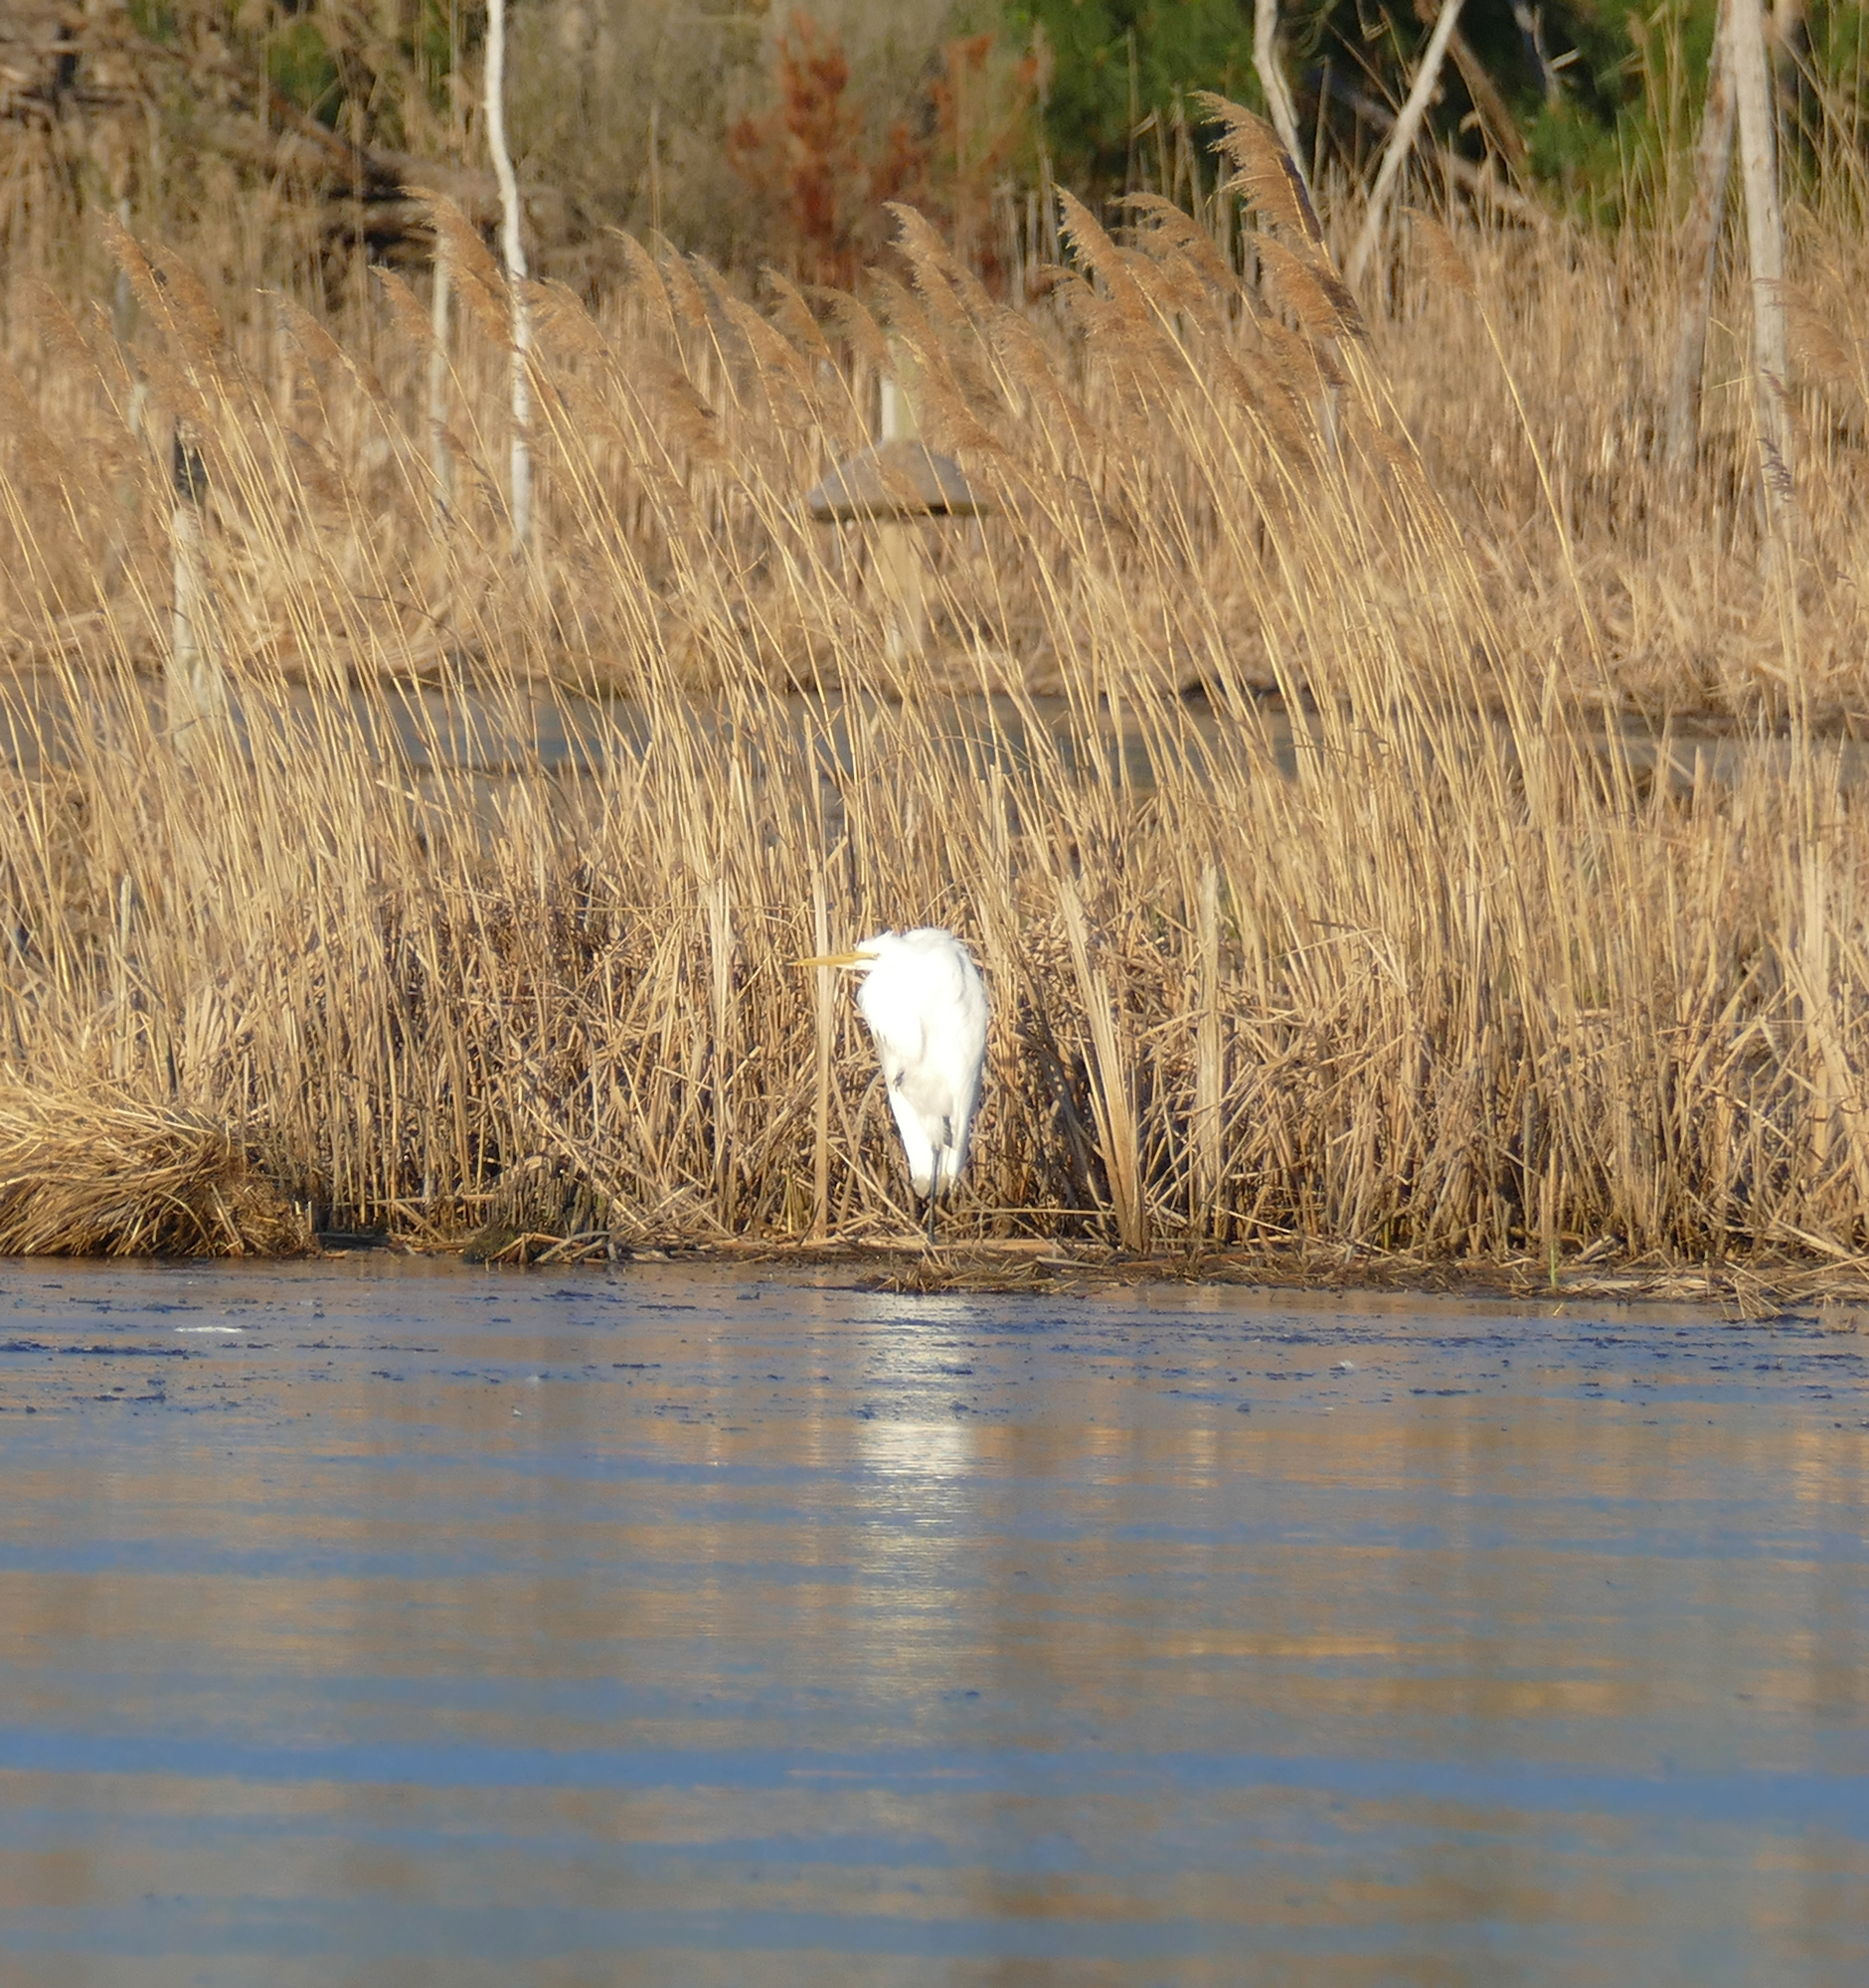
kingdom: Animalia
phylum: Chordata
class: Aves
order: Pelecaniformes
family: Ardeidae
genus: Ardea
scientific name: Ardea alba
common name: Great egret
